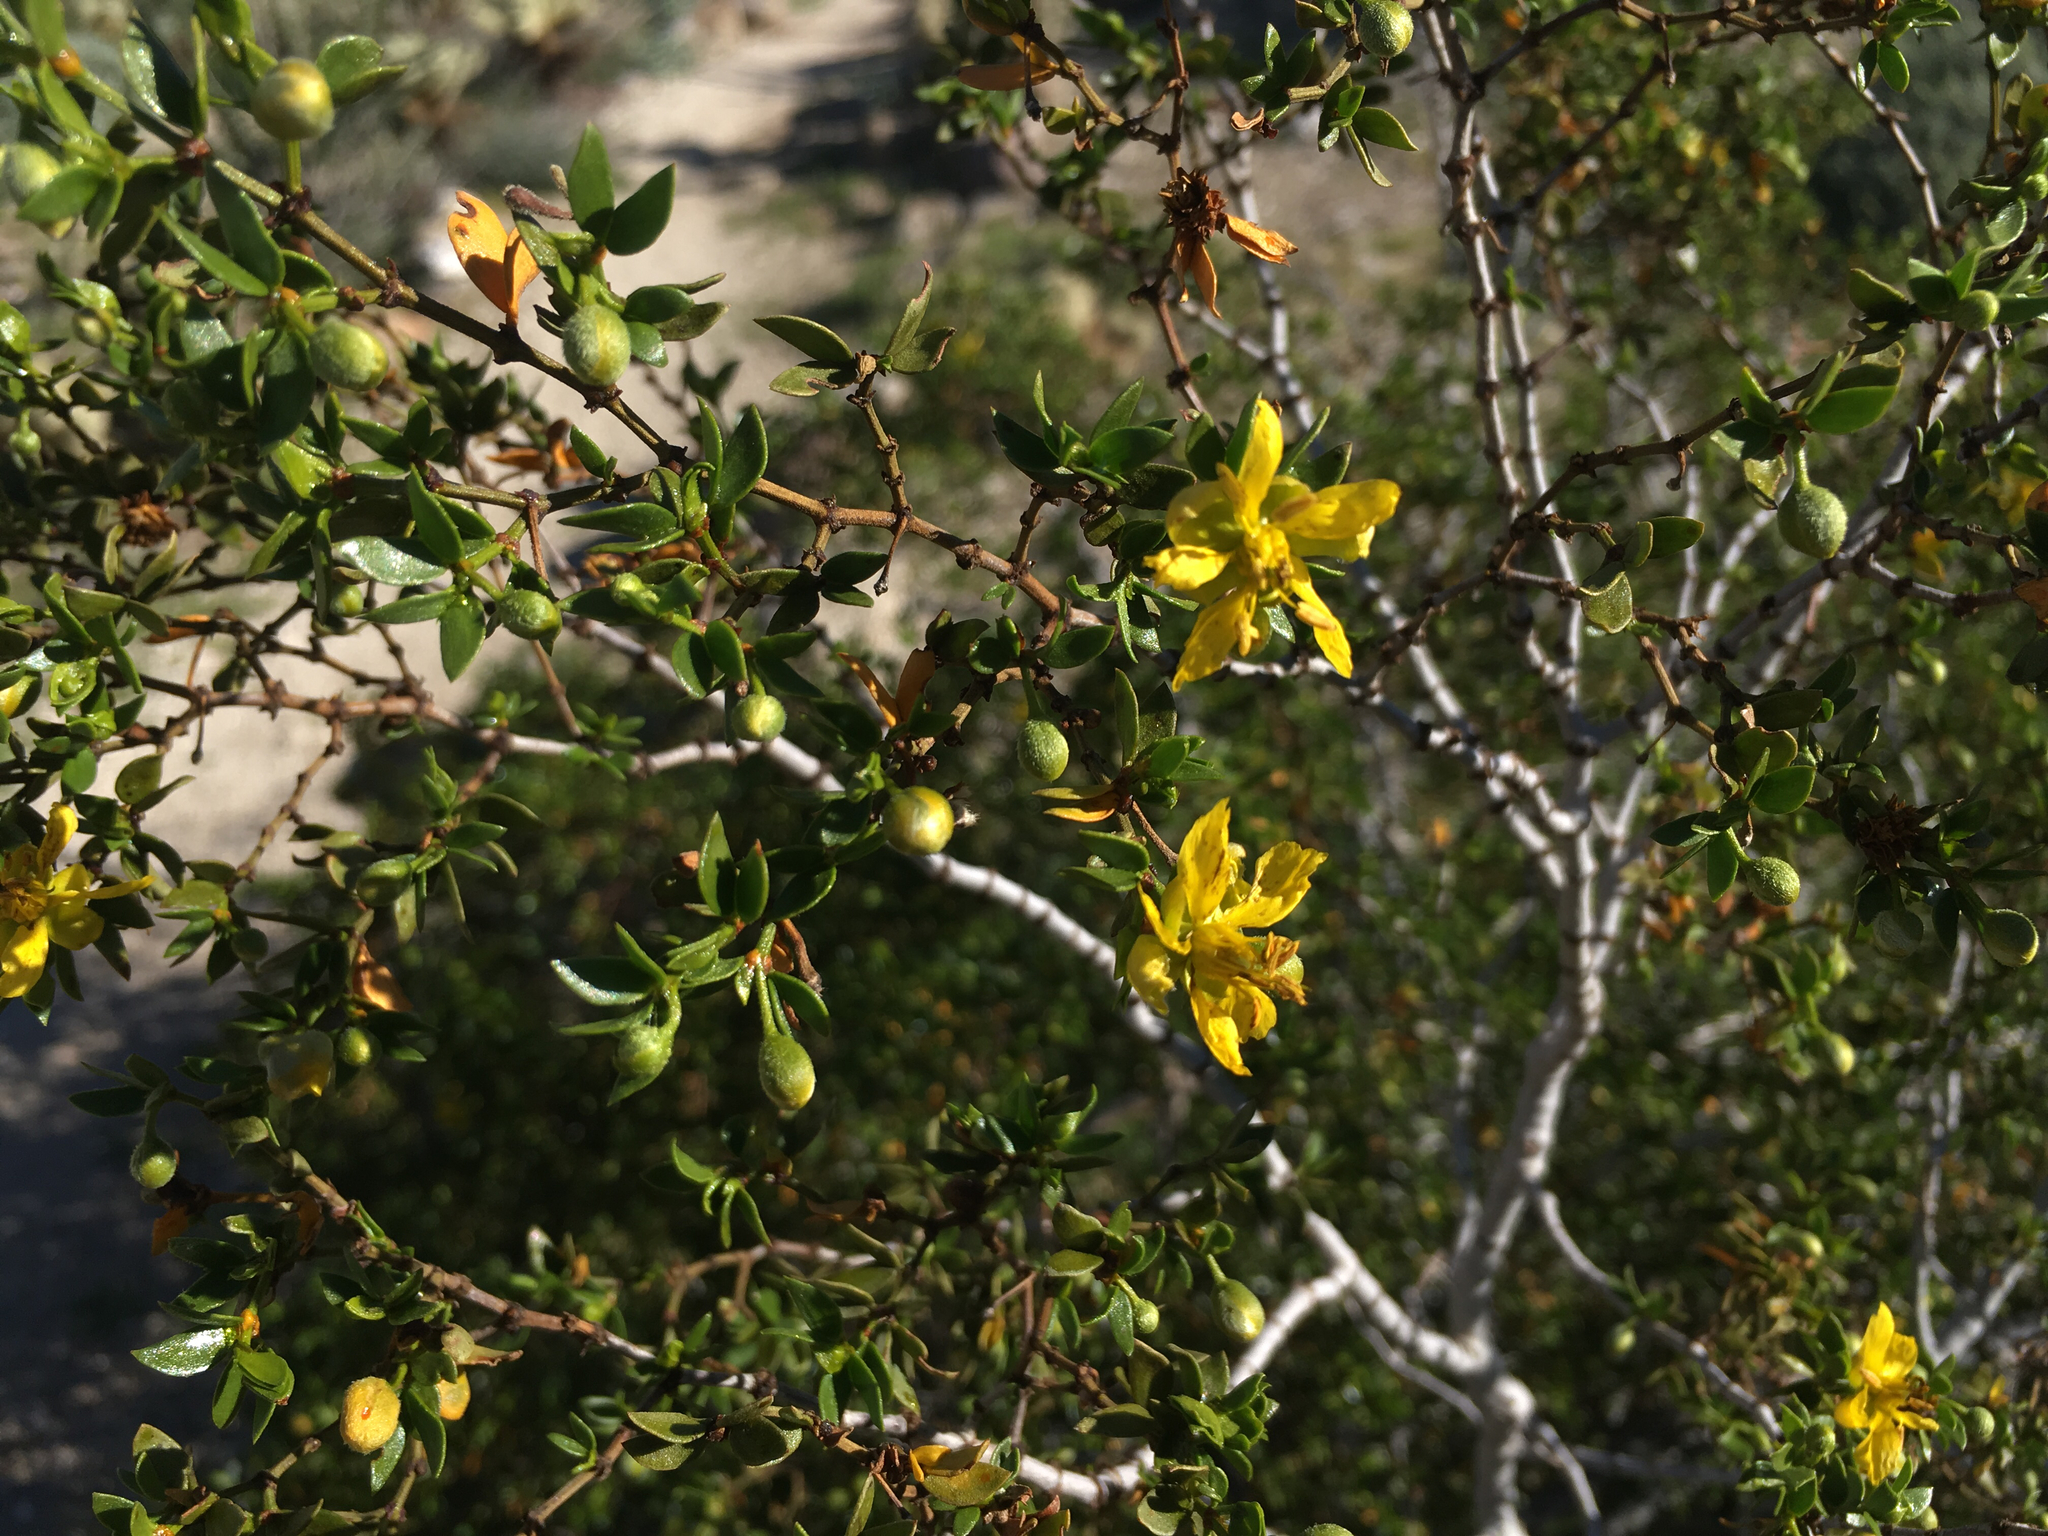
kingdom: Plantae
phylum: Tracheophyta
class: Magnoliopsida
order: Zygophyllales
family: Zygophyllaceae
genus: Larrea
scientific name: Larrea tridentata
